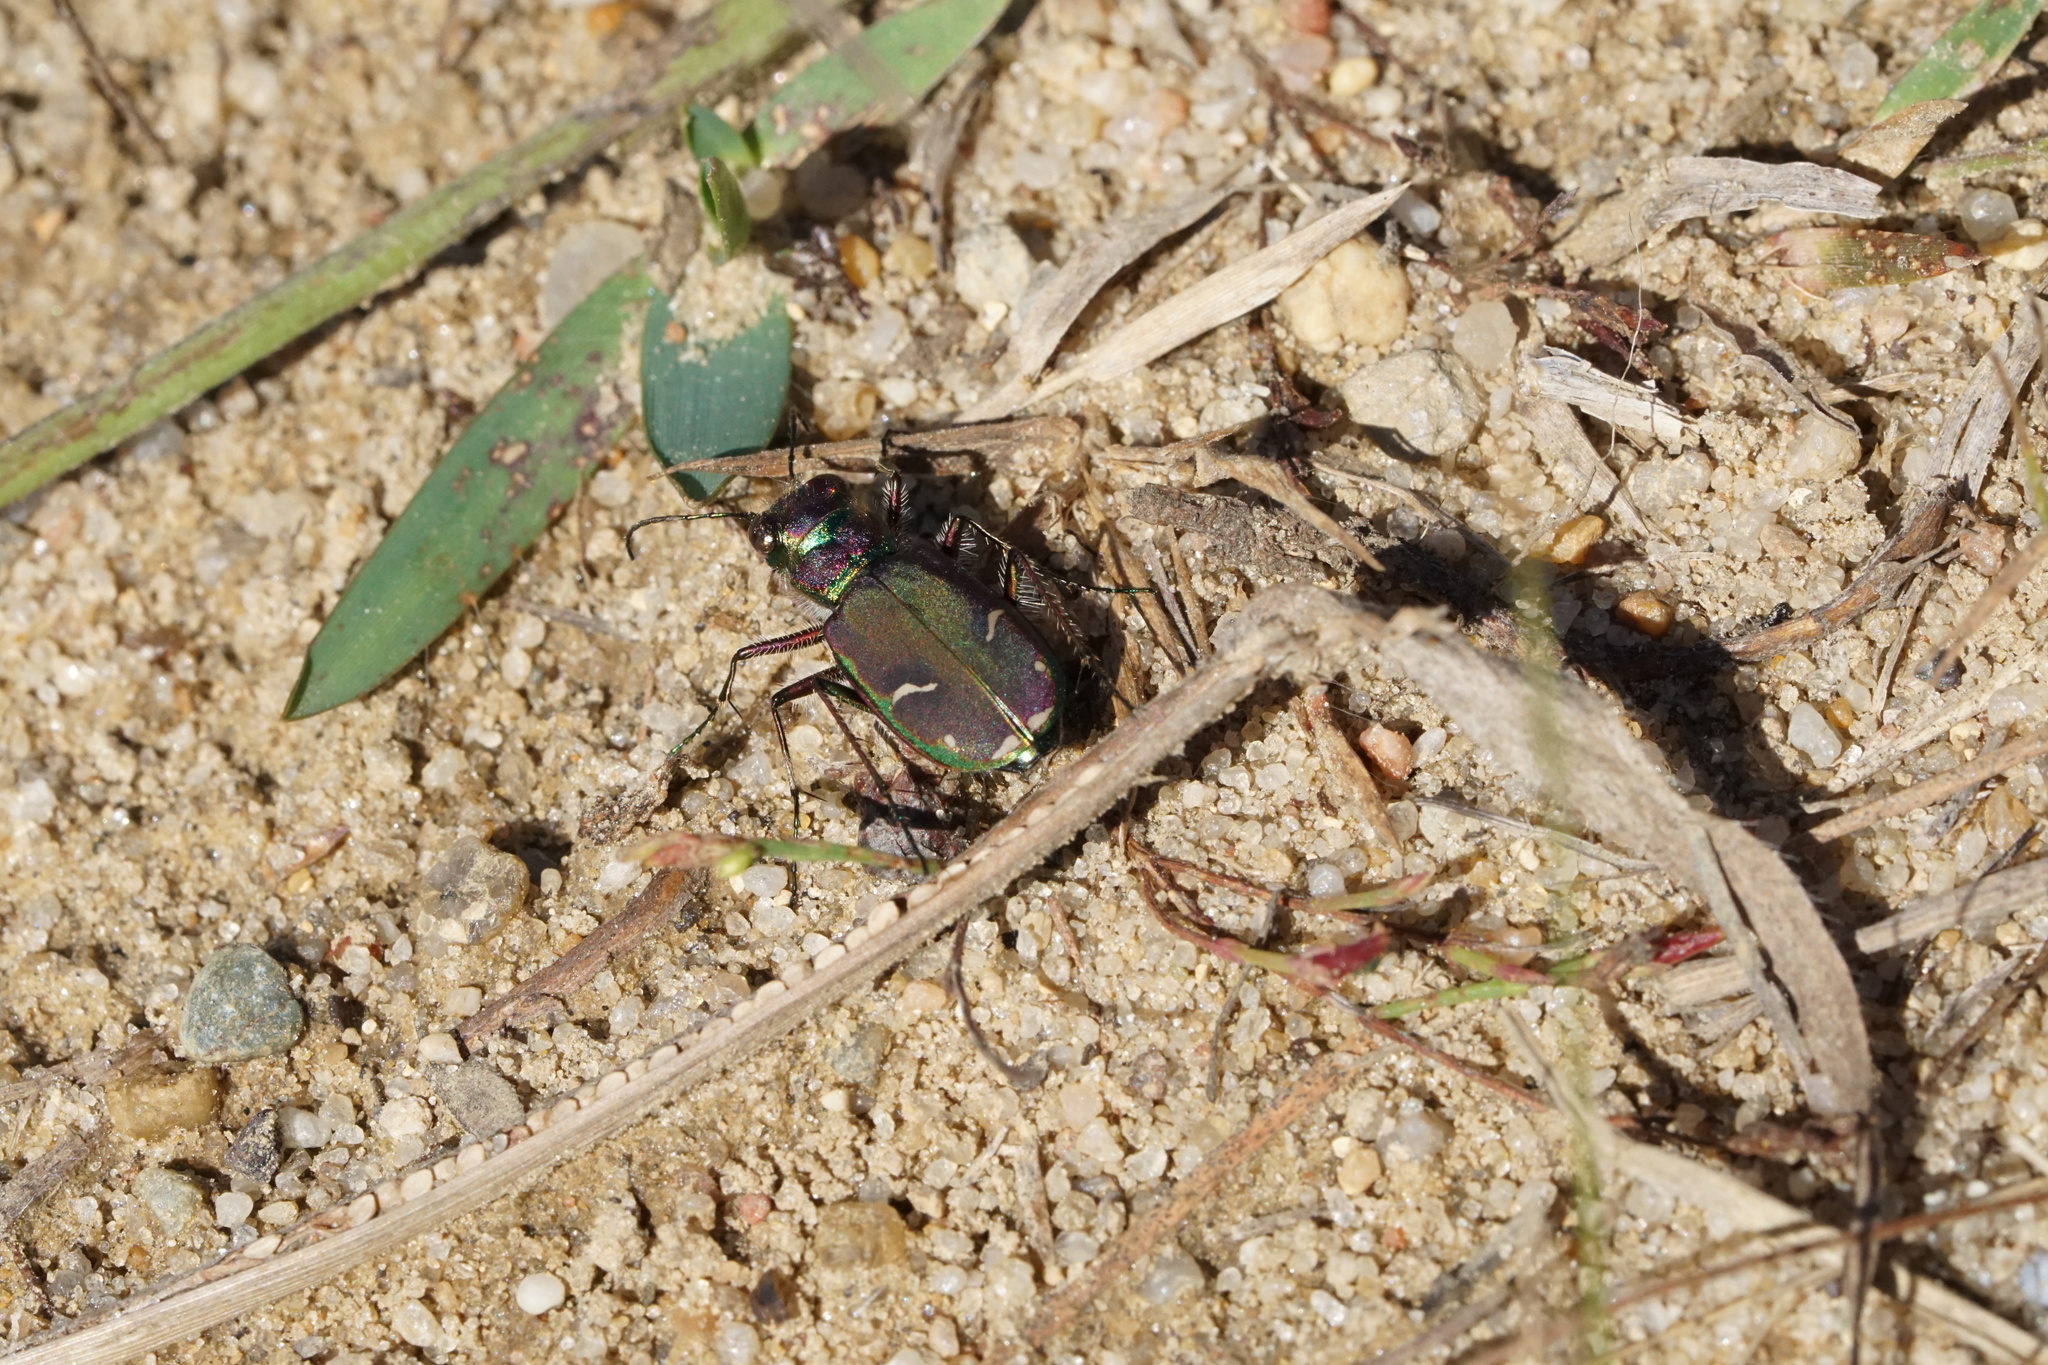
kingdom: Animalia
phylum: Arthropoda
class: Insecta
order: Coleoptera
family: Carabidae
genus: Cicindela
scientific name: Cicindela purpurea
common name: Cow path tiger beetle
